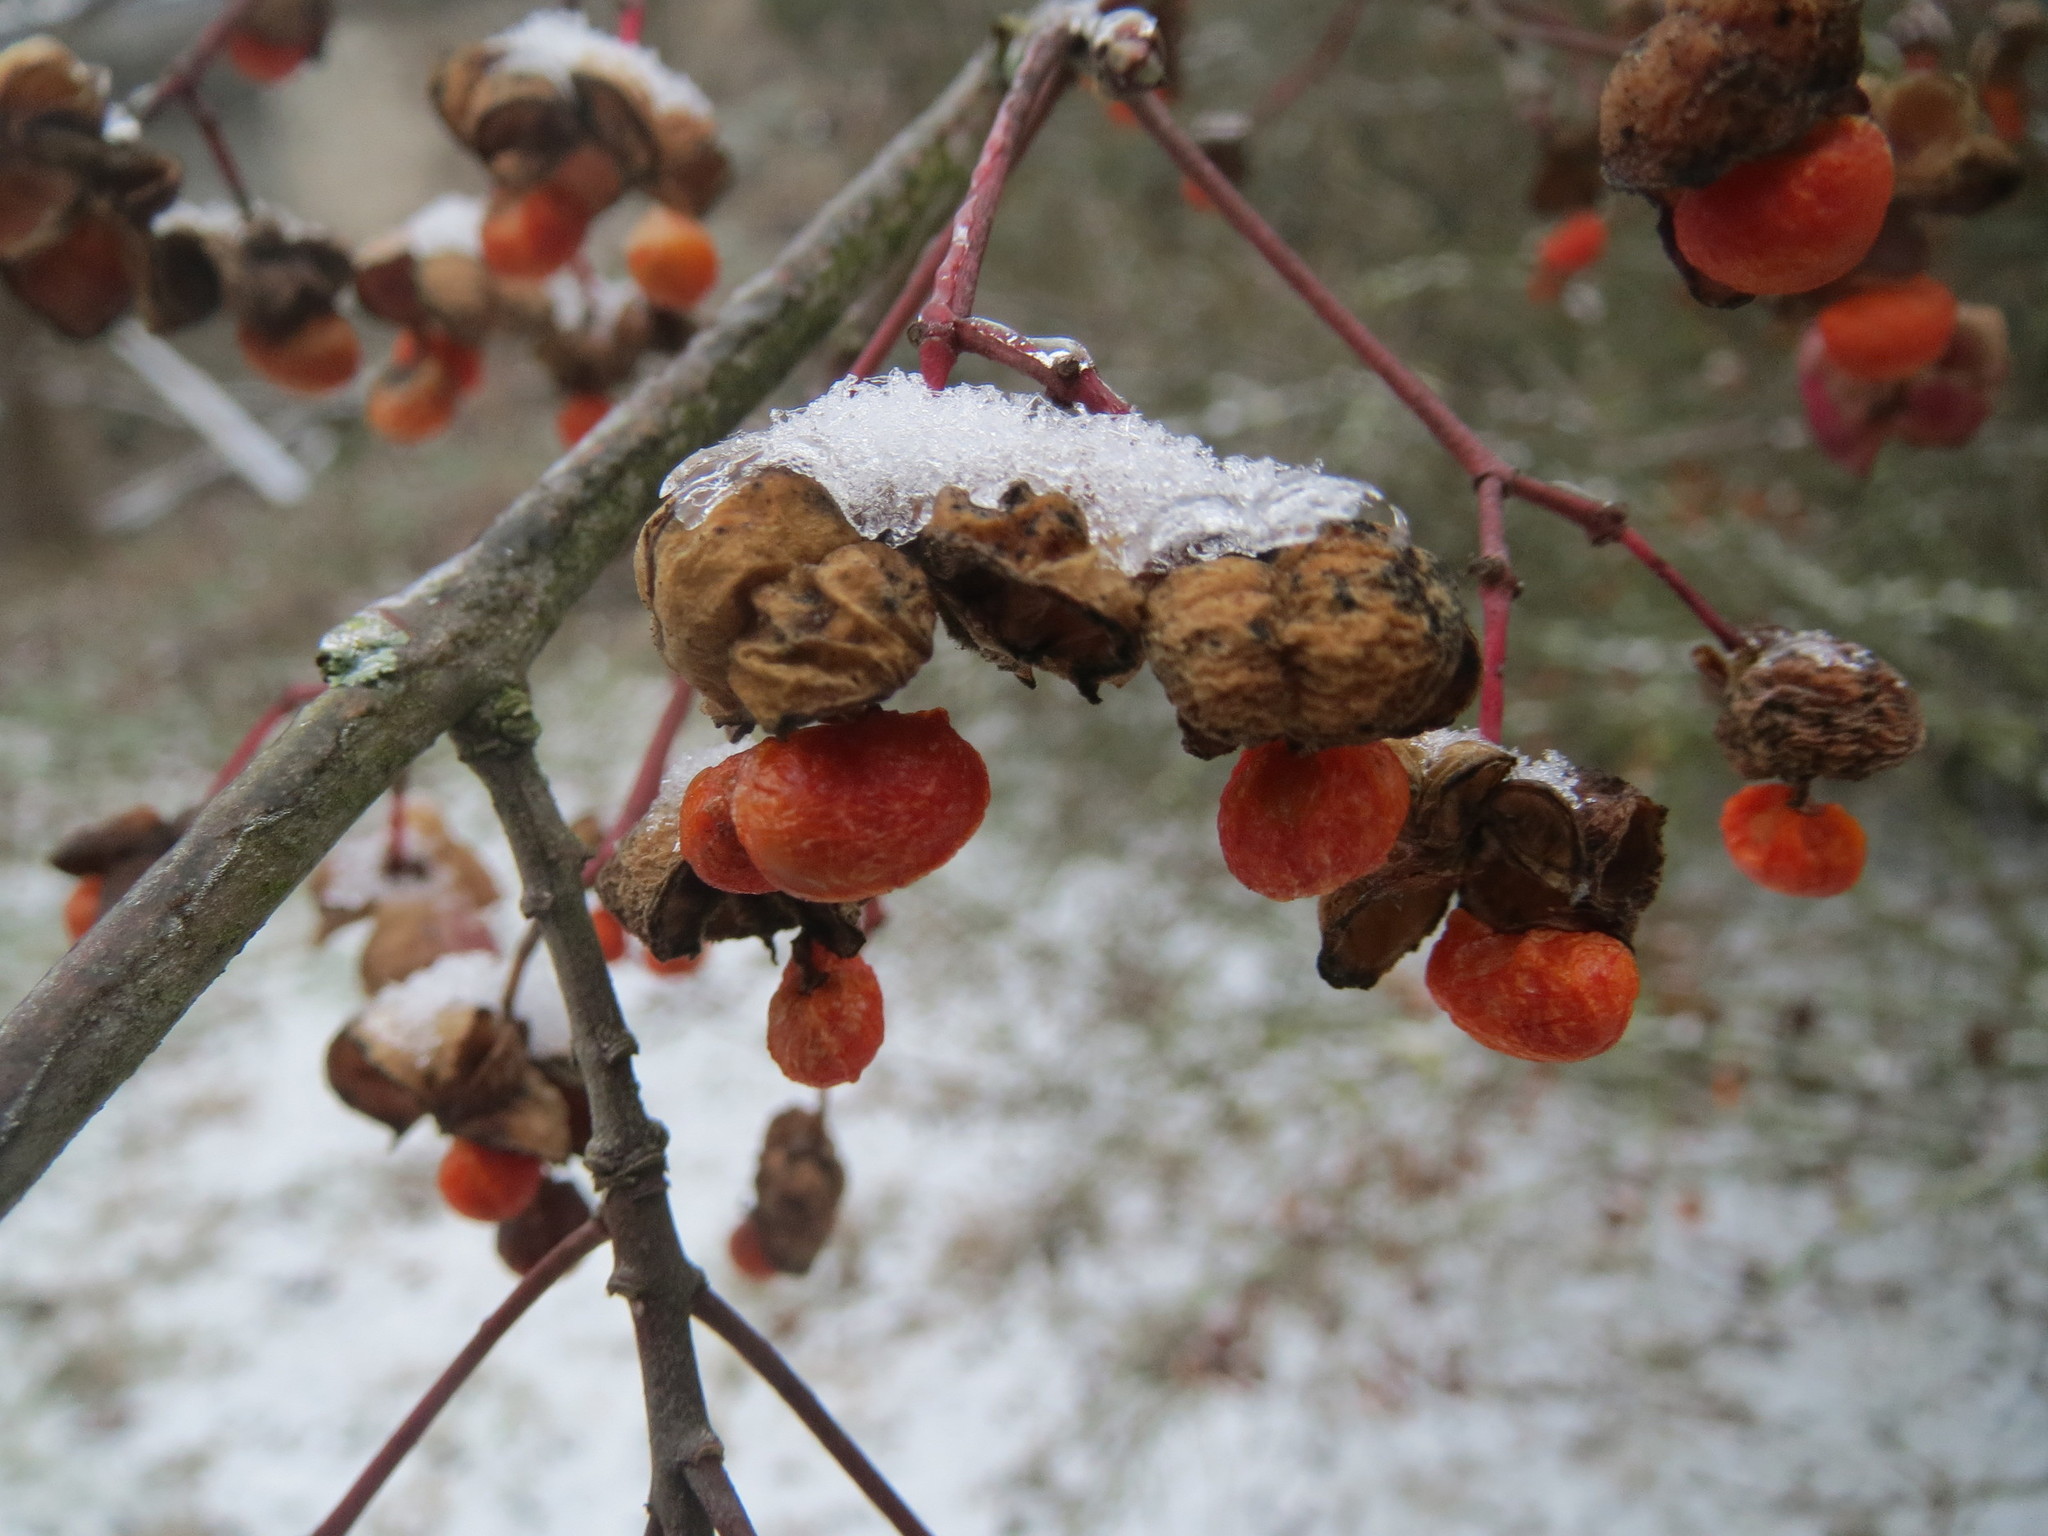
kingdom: Plantae
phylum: Tracheophyta
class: Magnoliopsida
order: Celastrales
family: Celastraceae
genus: Euonymus
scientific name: Euonymus europaeus
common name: Spindle
